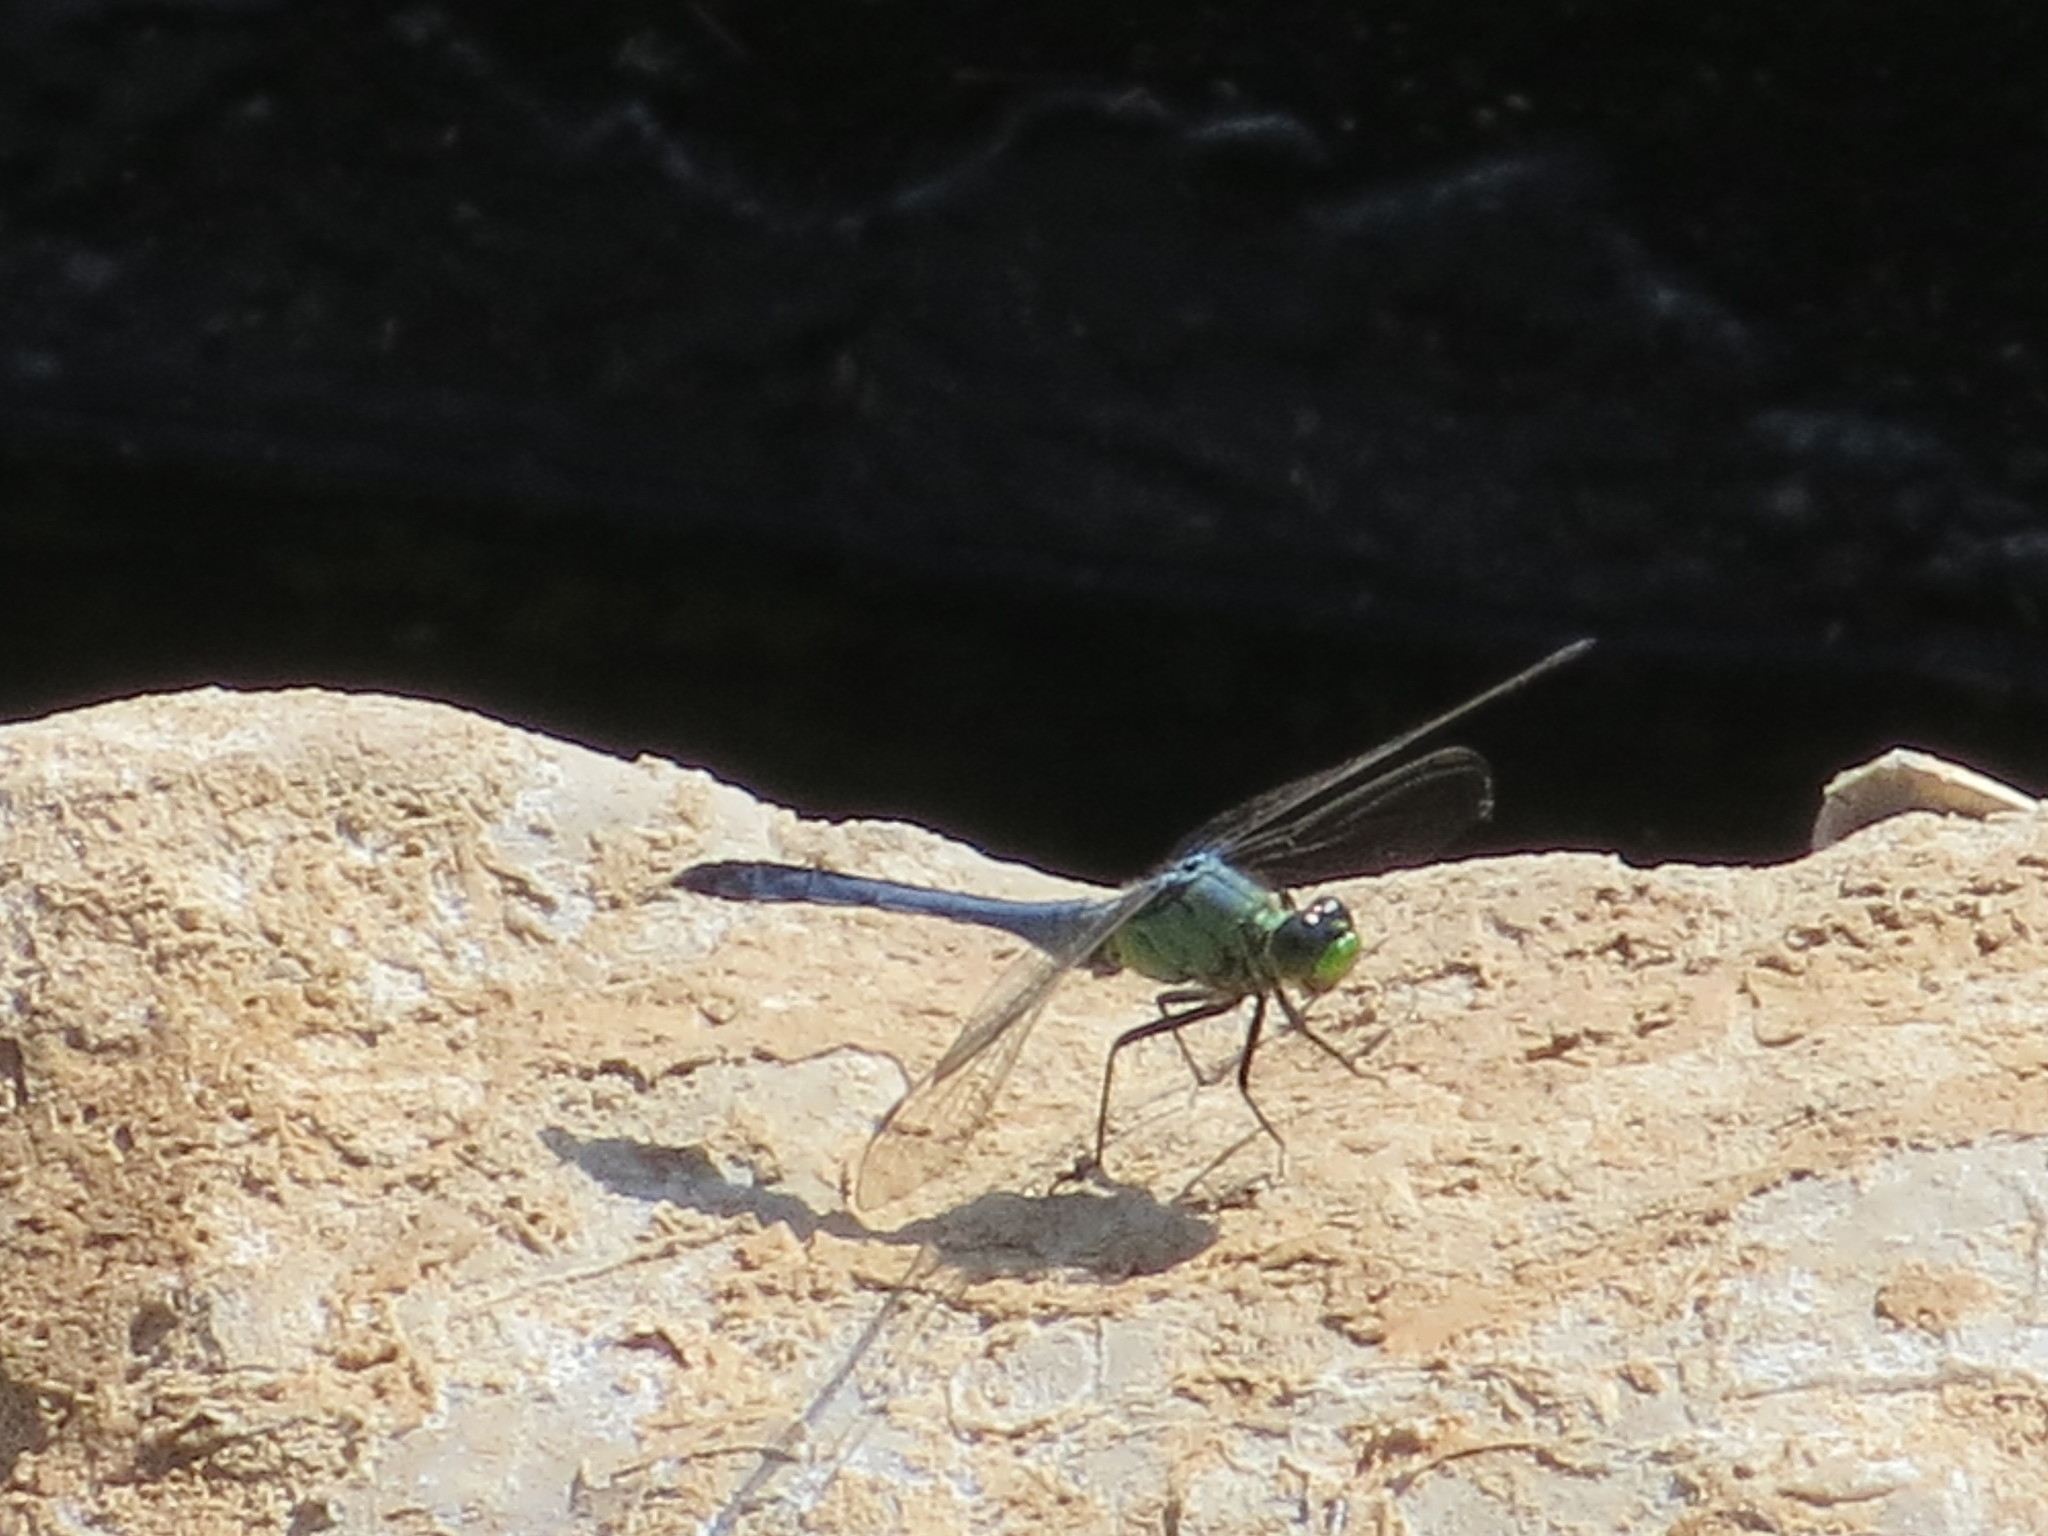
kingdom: Animalia
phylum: Arthropoda
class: Insecta
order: Odonata
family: Libellulidae
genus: Erythemis
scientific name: Erythemis simplicicollis
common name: Eastern pondhawk
